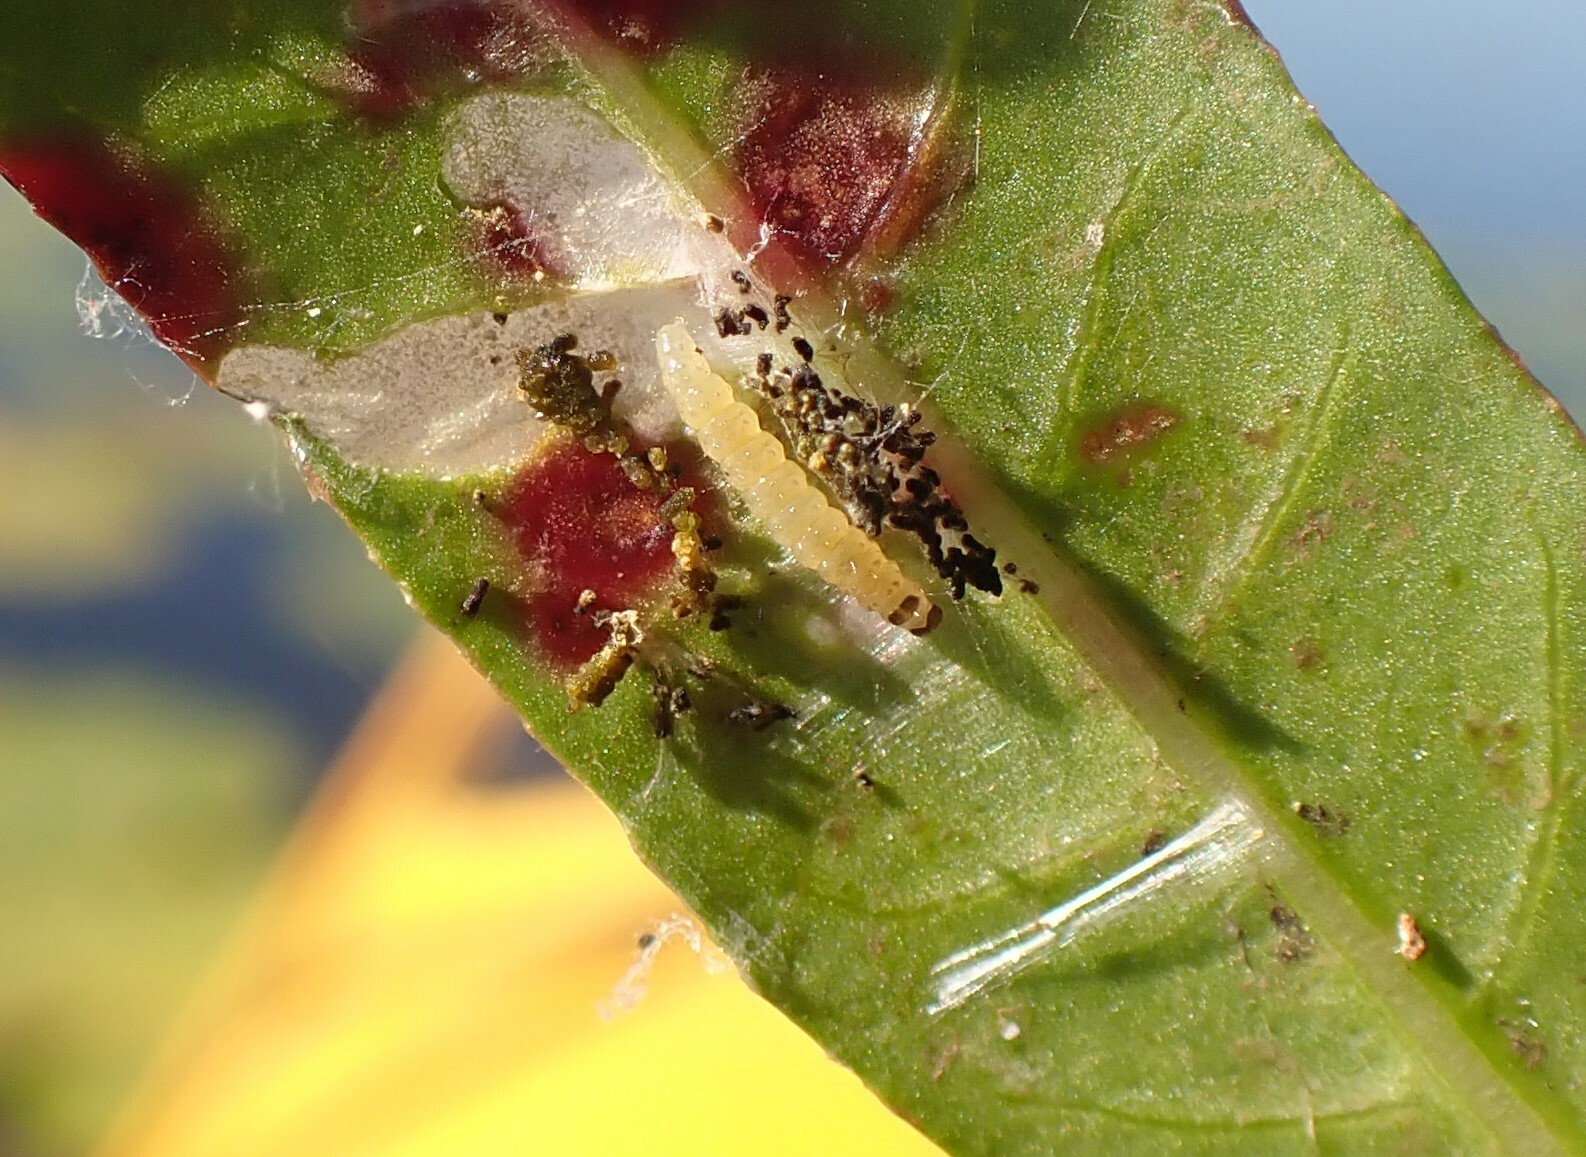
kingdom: Animalia
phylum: Arthropoda
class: Insecta
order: Lepidoptera
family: Crambidae
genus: Herpetogramma
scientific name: Herpetogramma bipunctalis
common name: Southern beet webworm
